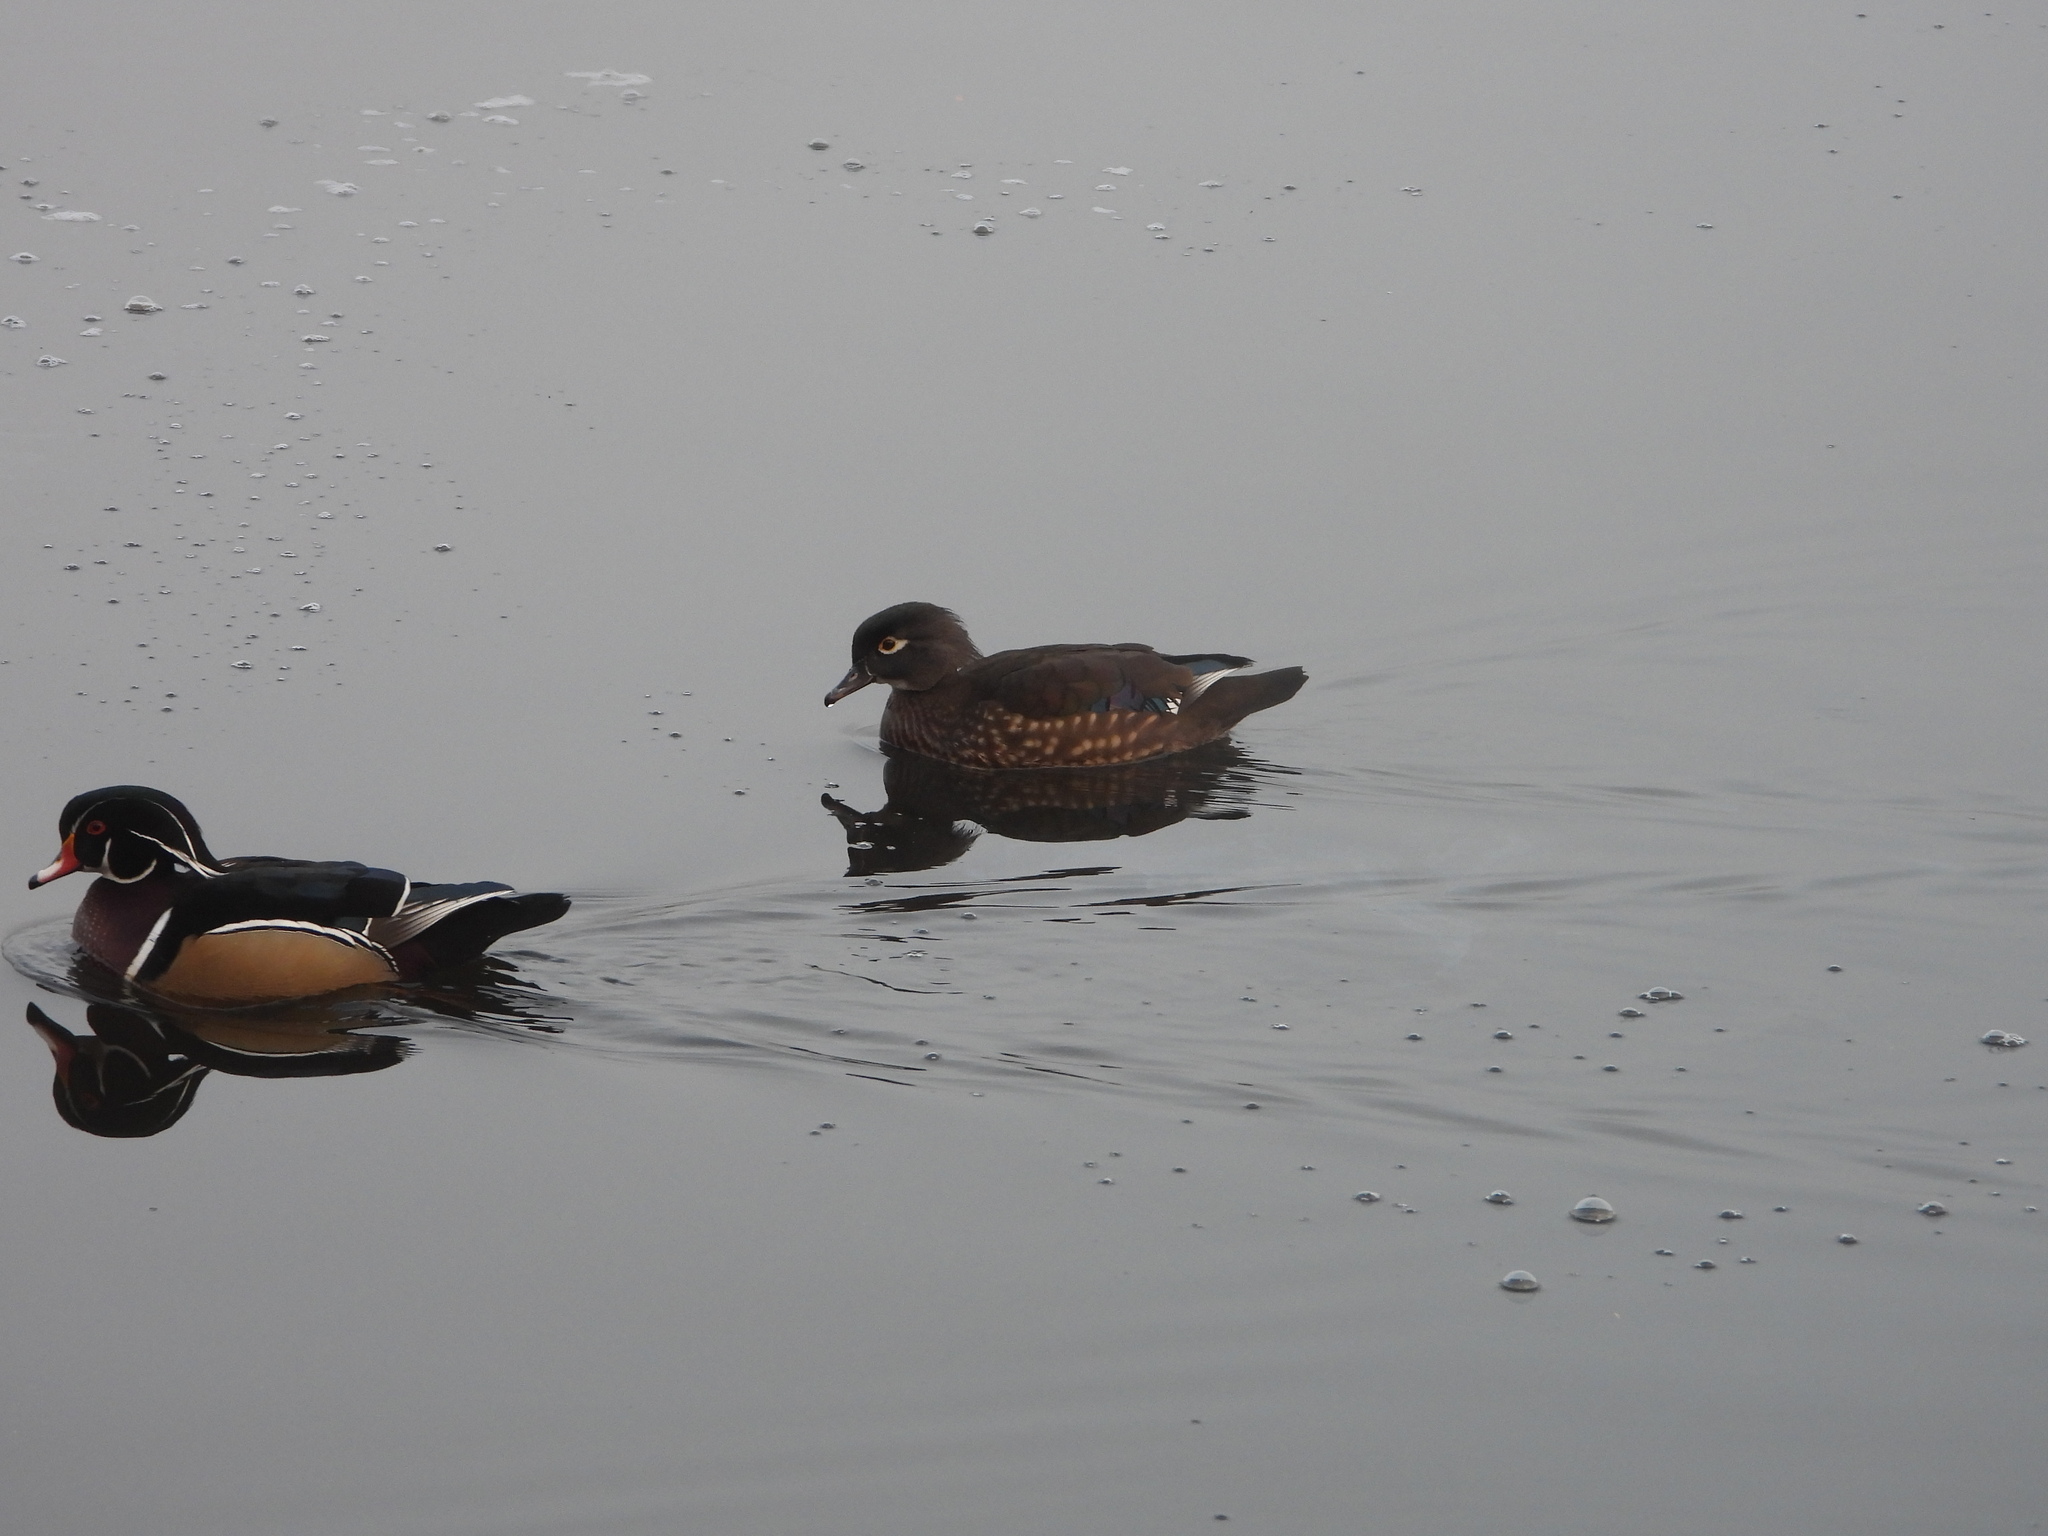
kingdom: Animalia
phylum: Chordata
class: Aves
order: Anseriformes
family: Anatidae
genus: Aix
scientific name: Aix sponsa
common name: Wood duck
